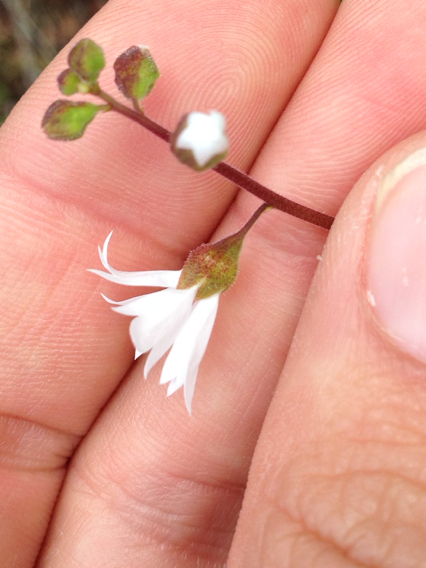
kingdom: Plantae
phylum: Tracheophyta
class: Magnoliopsida
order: Saxifragales
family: Saxifragaceae
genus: Lithophragma
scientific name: Lithophragma affine
